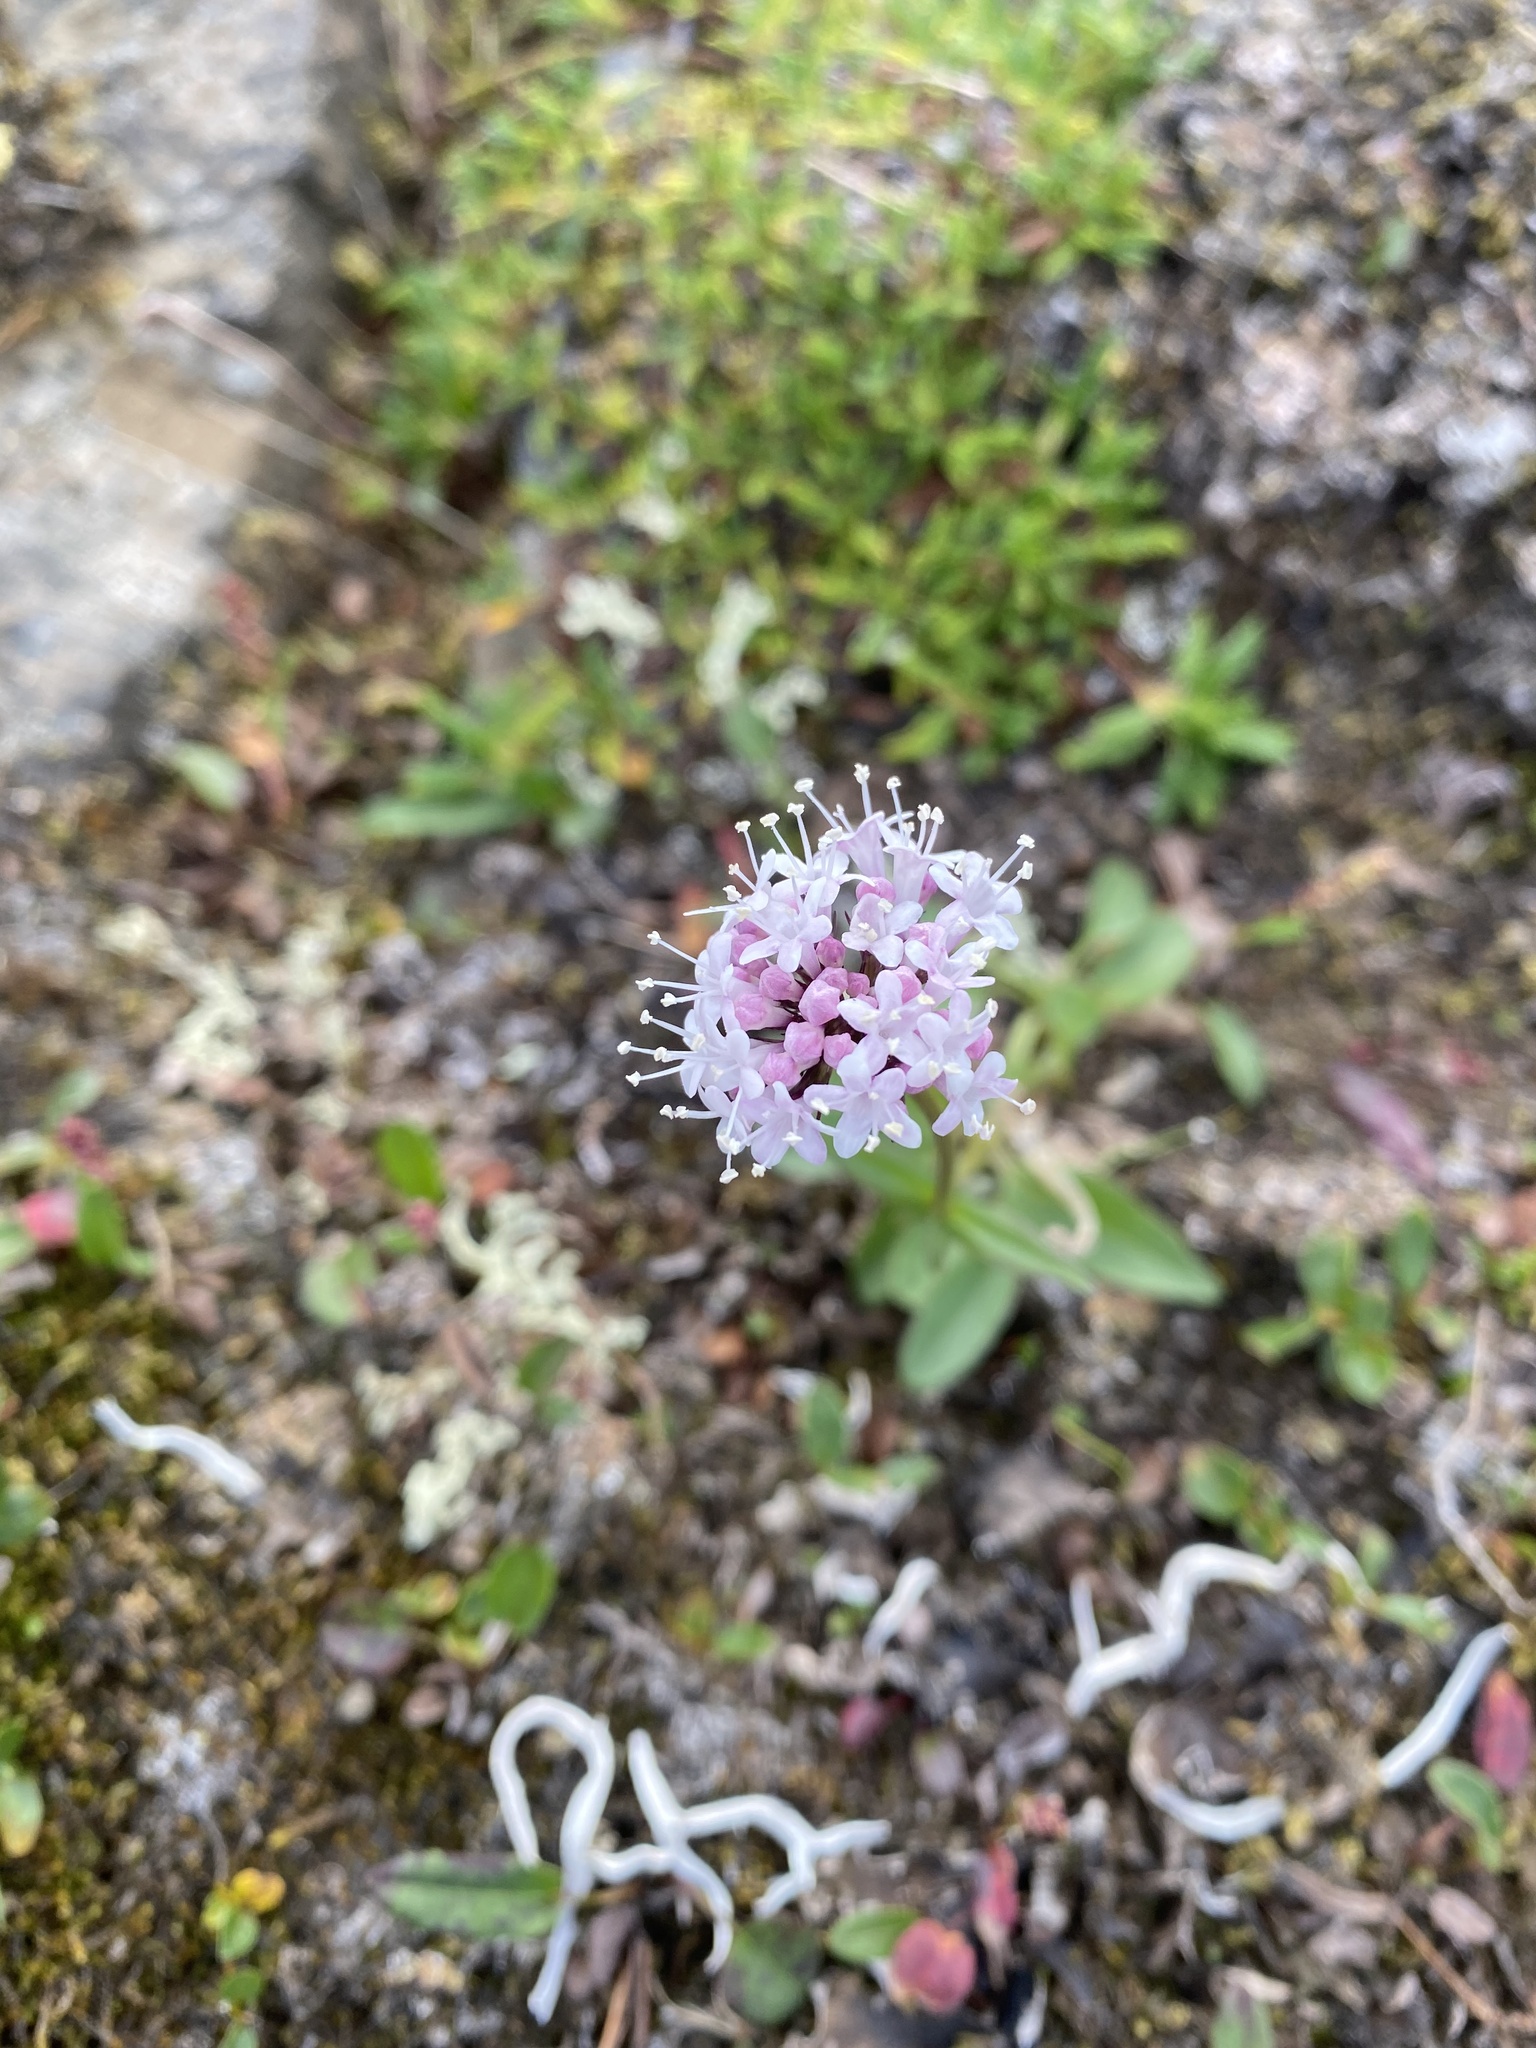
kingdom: Plantae
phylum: Tracheophyta
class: Magnoliopsida
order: Dipsacales
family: Caprifoliaceae
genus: Valeriana
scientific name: Valeriana capitata
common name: Capitate valerian
